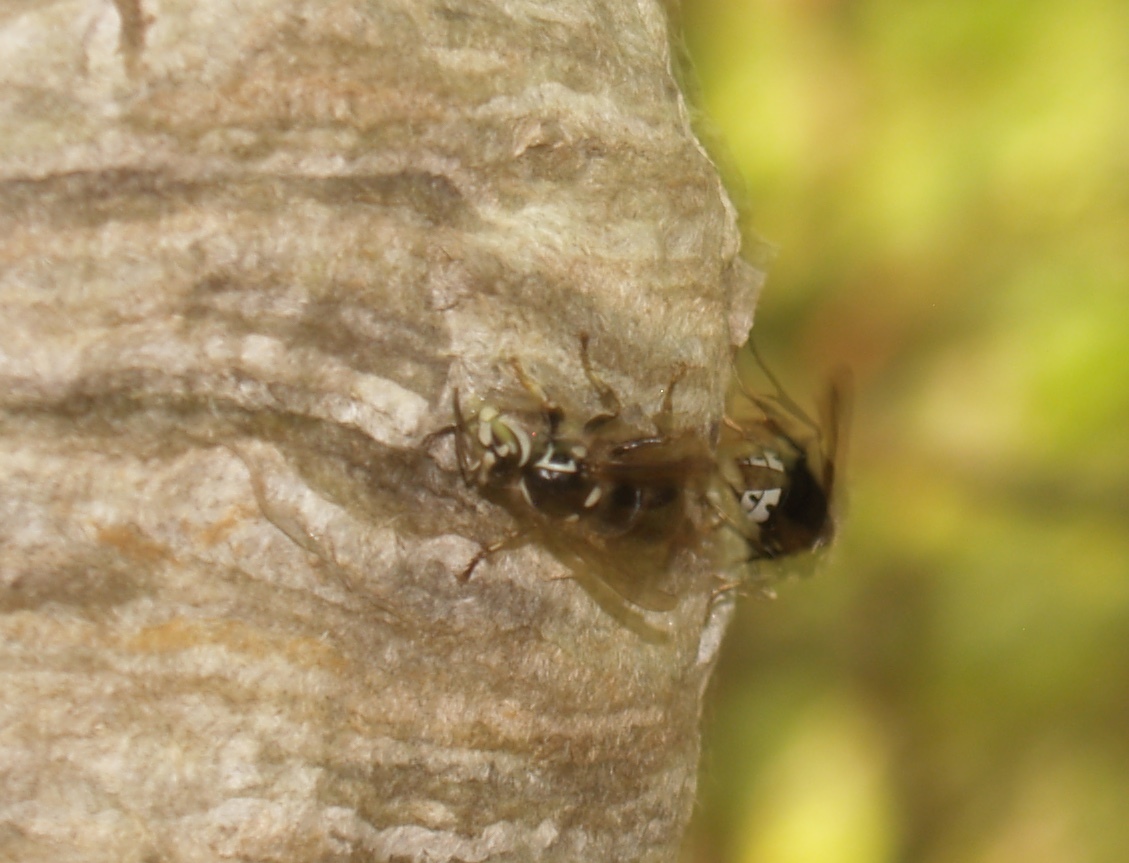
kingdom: Animalia
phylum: Arthropoda
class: Insecta
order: Hymenoptera
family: Vespidae
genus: Dolichovespula
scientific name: Dolichovespula maculata
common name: Bald-faced hornet
